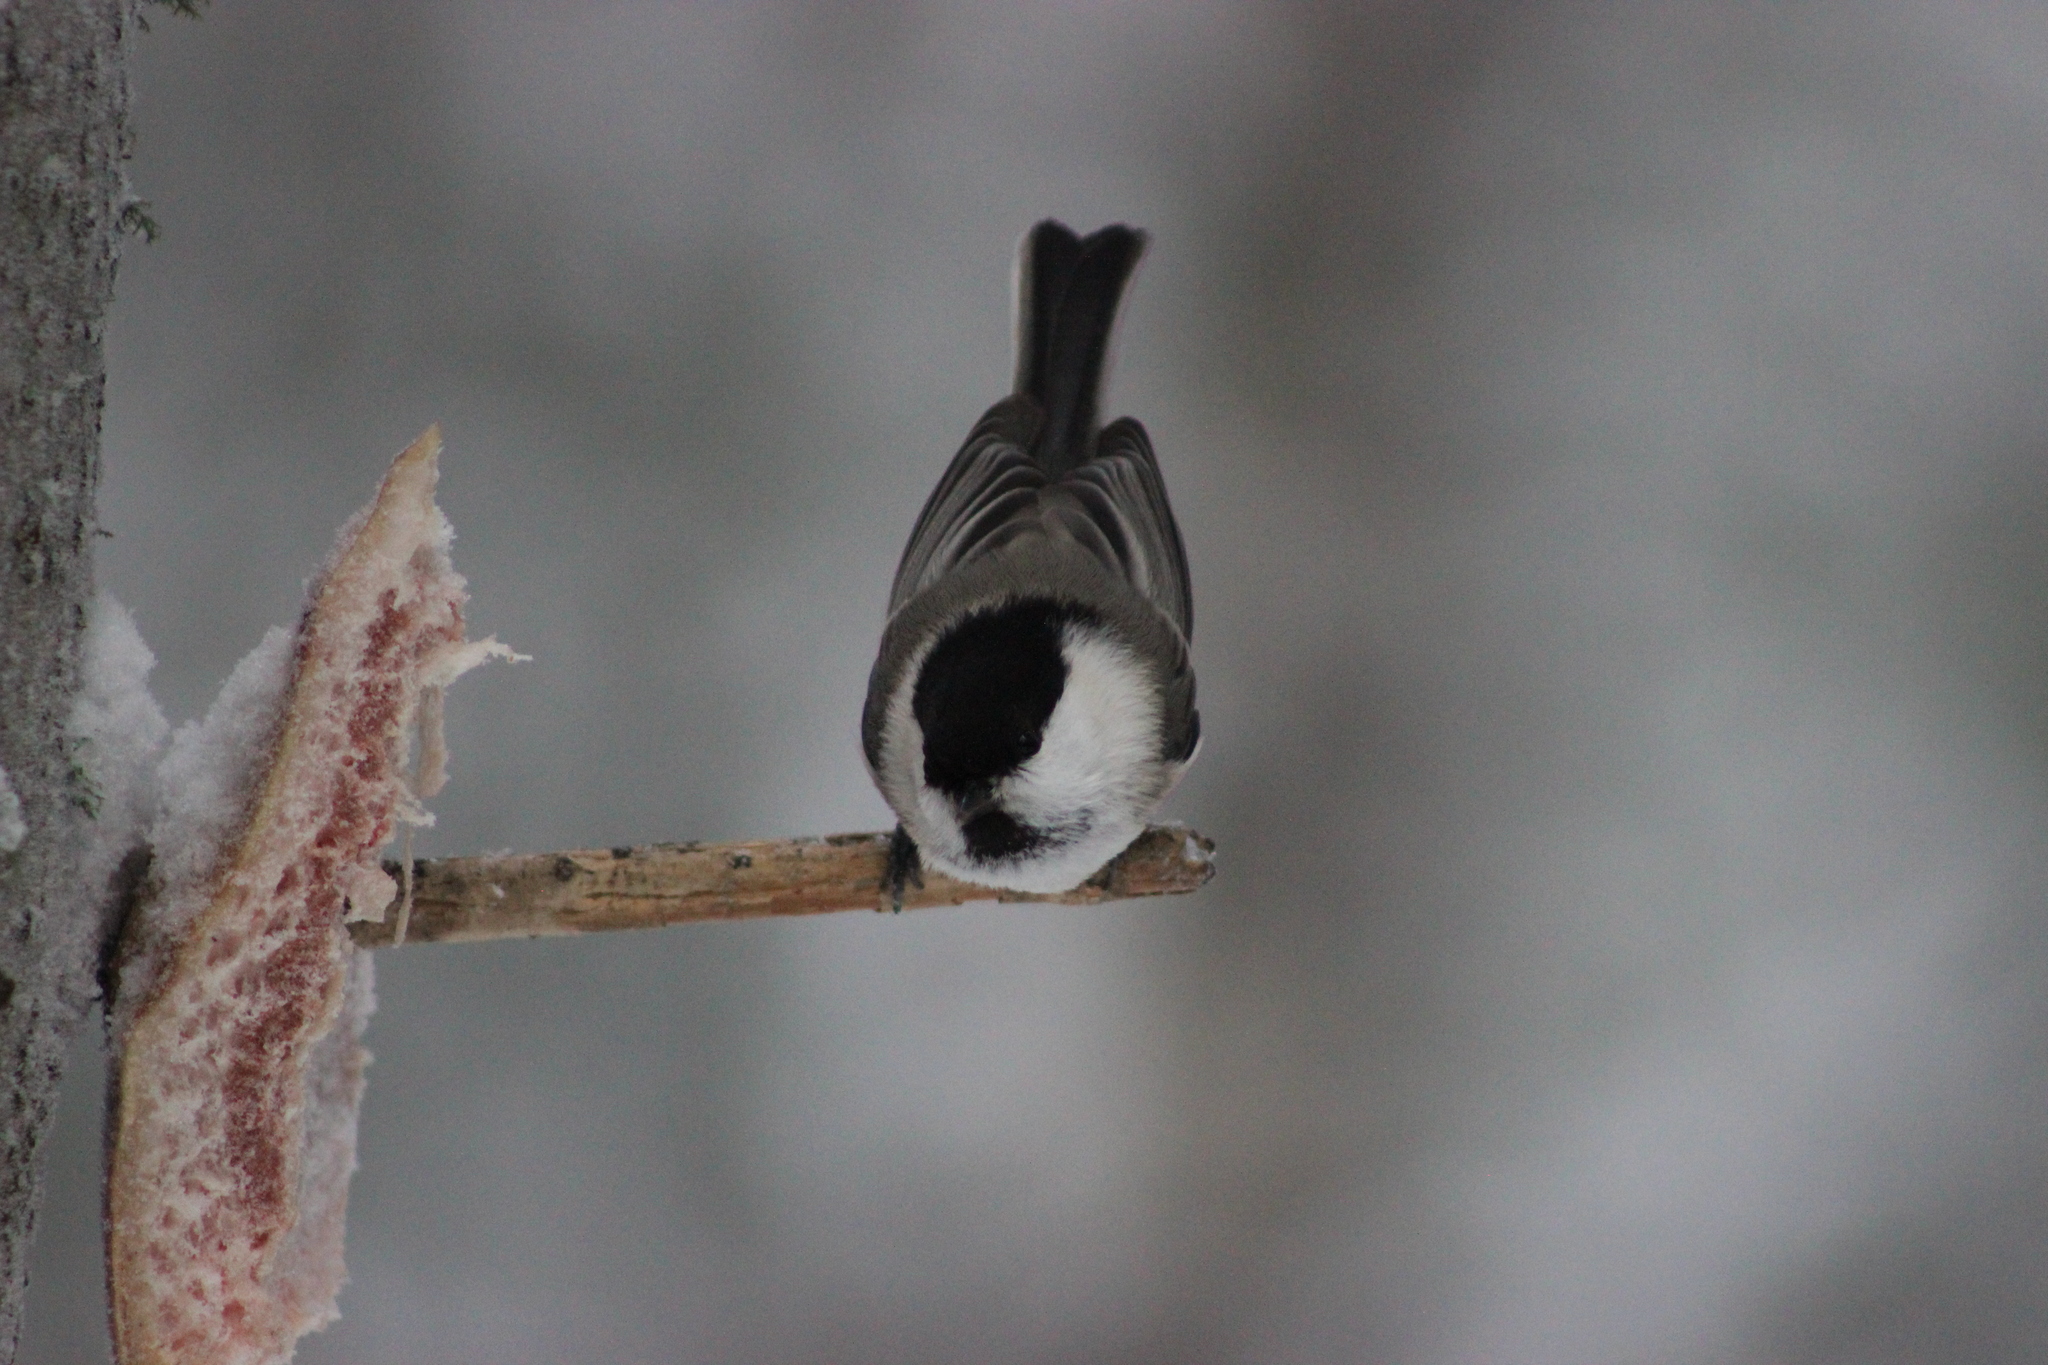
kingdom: Animalia
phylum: Chordata
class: Aves
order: Passeriformes
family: Paridae
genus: Poecile
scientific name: Poecile montanus
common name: Willow tit
